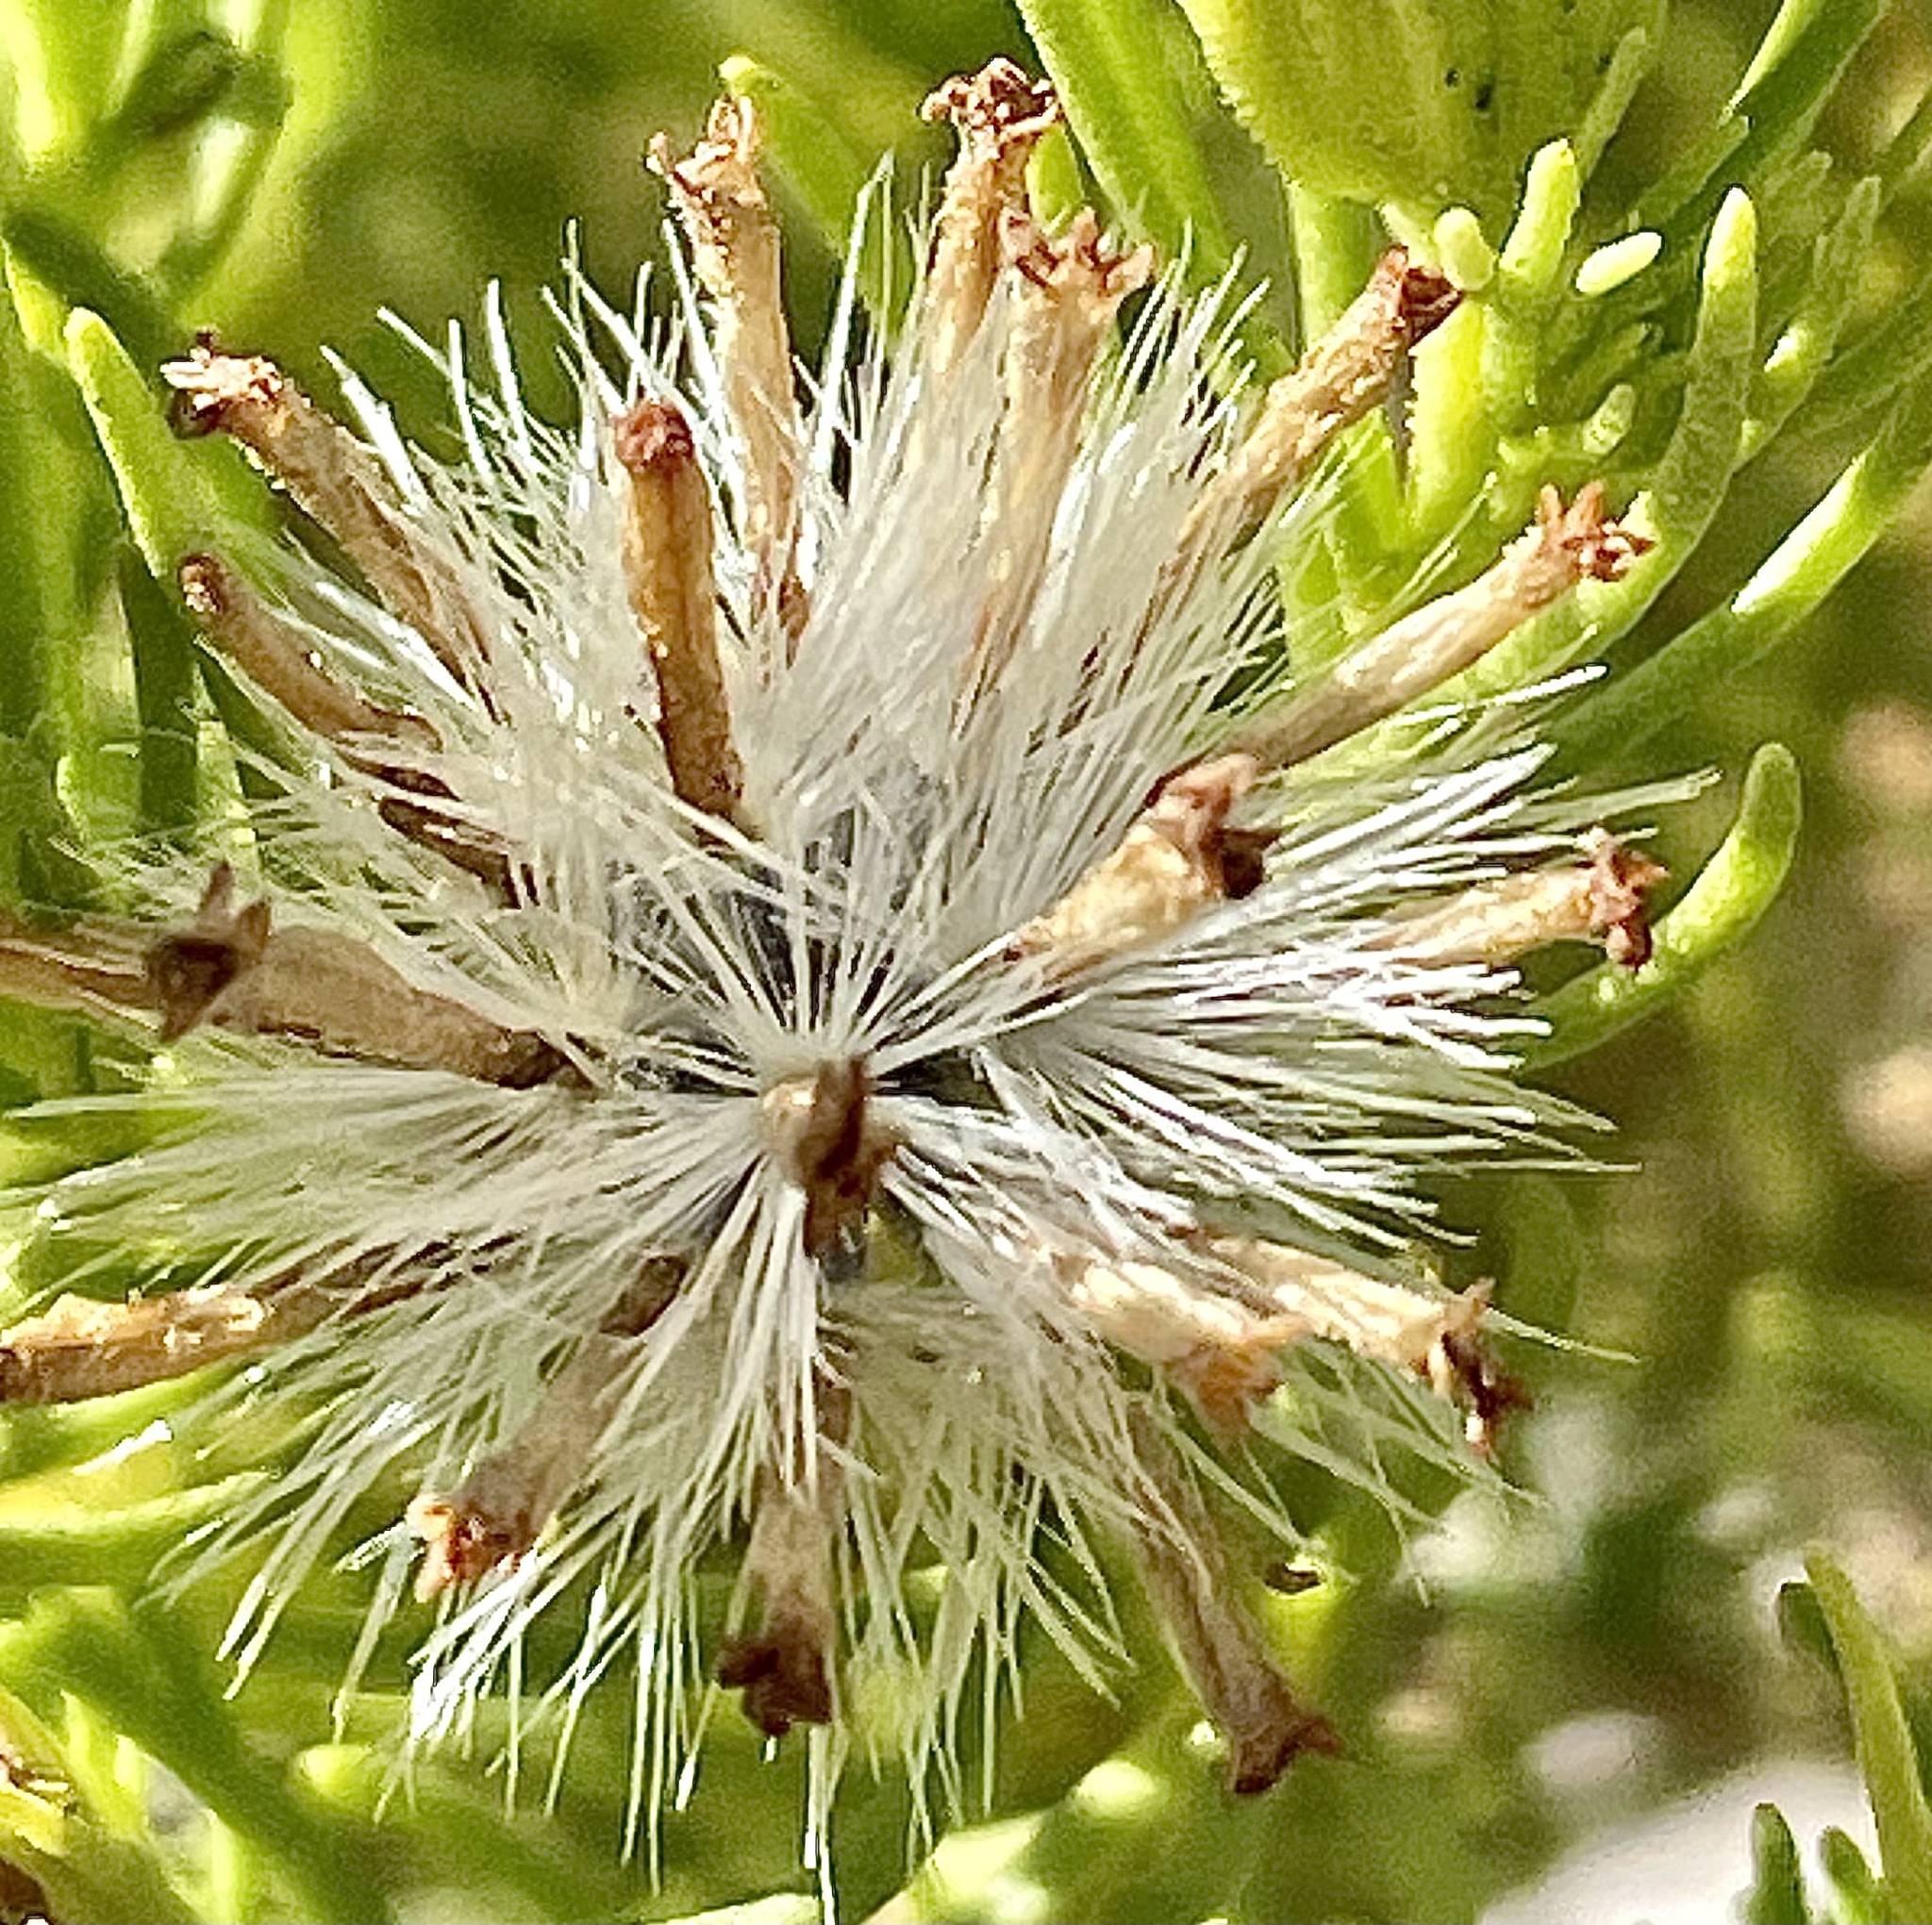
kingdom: Plantae
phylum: Tracheophyta
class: Magnoliopsida
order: Asterales
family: Asteraceae
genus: Peucephyllum
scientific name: Peucephyllum schottii
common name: Pygmy-cedar
